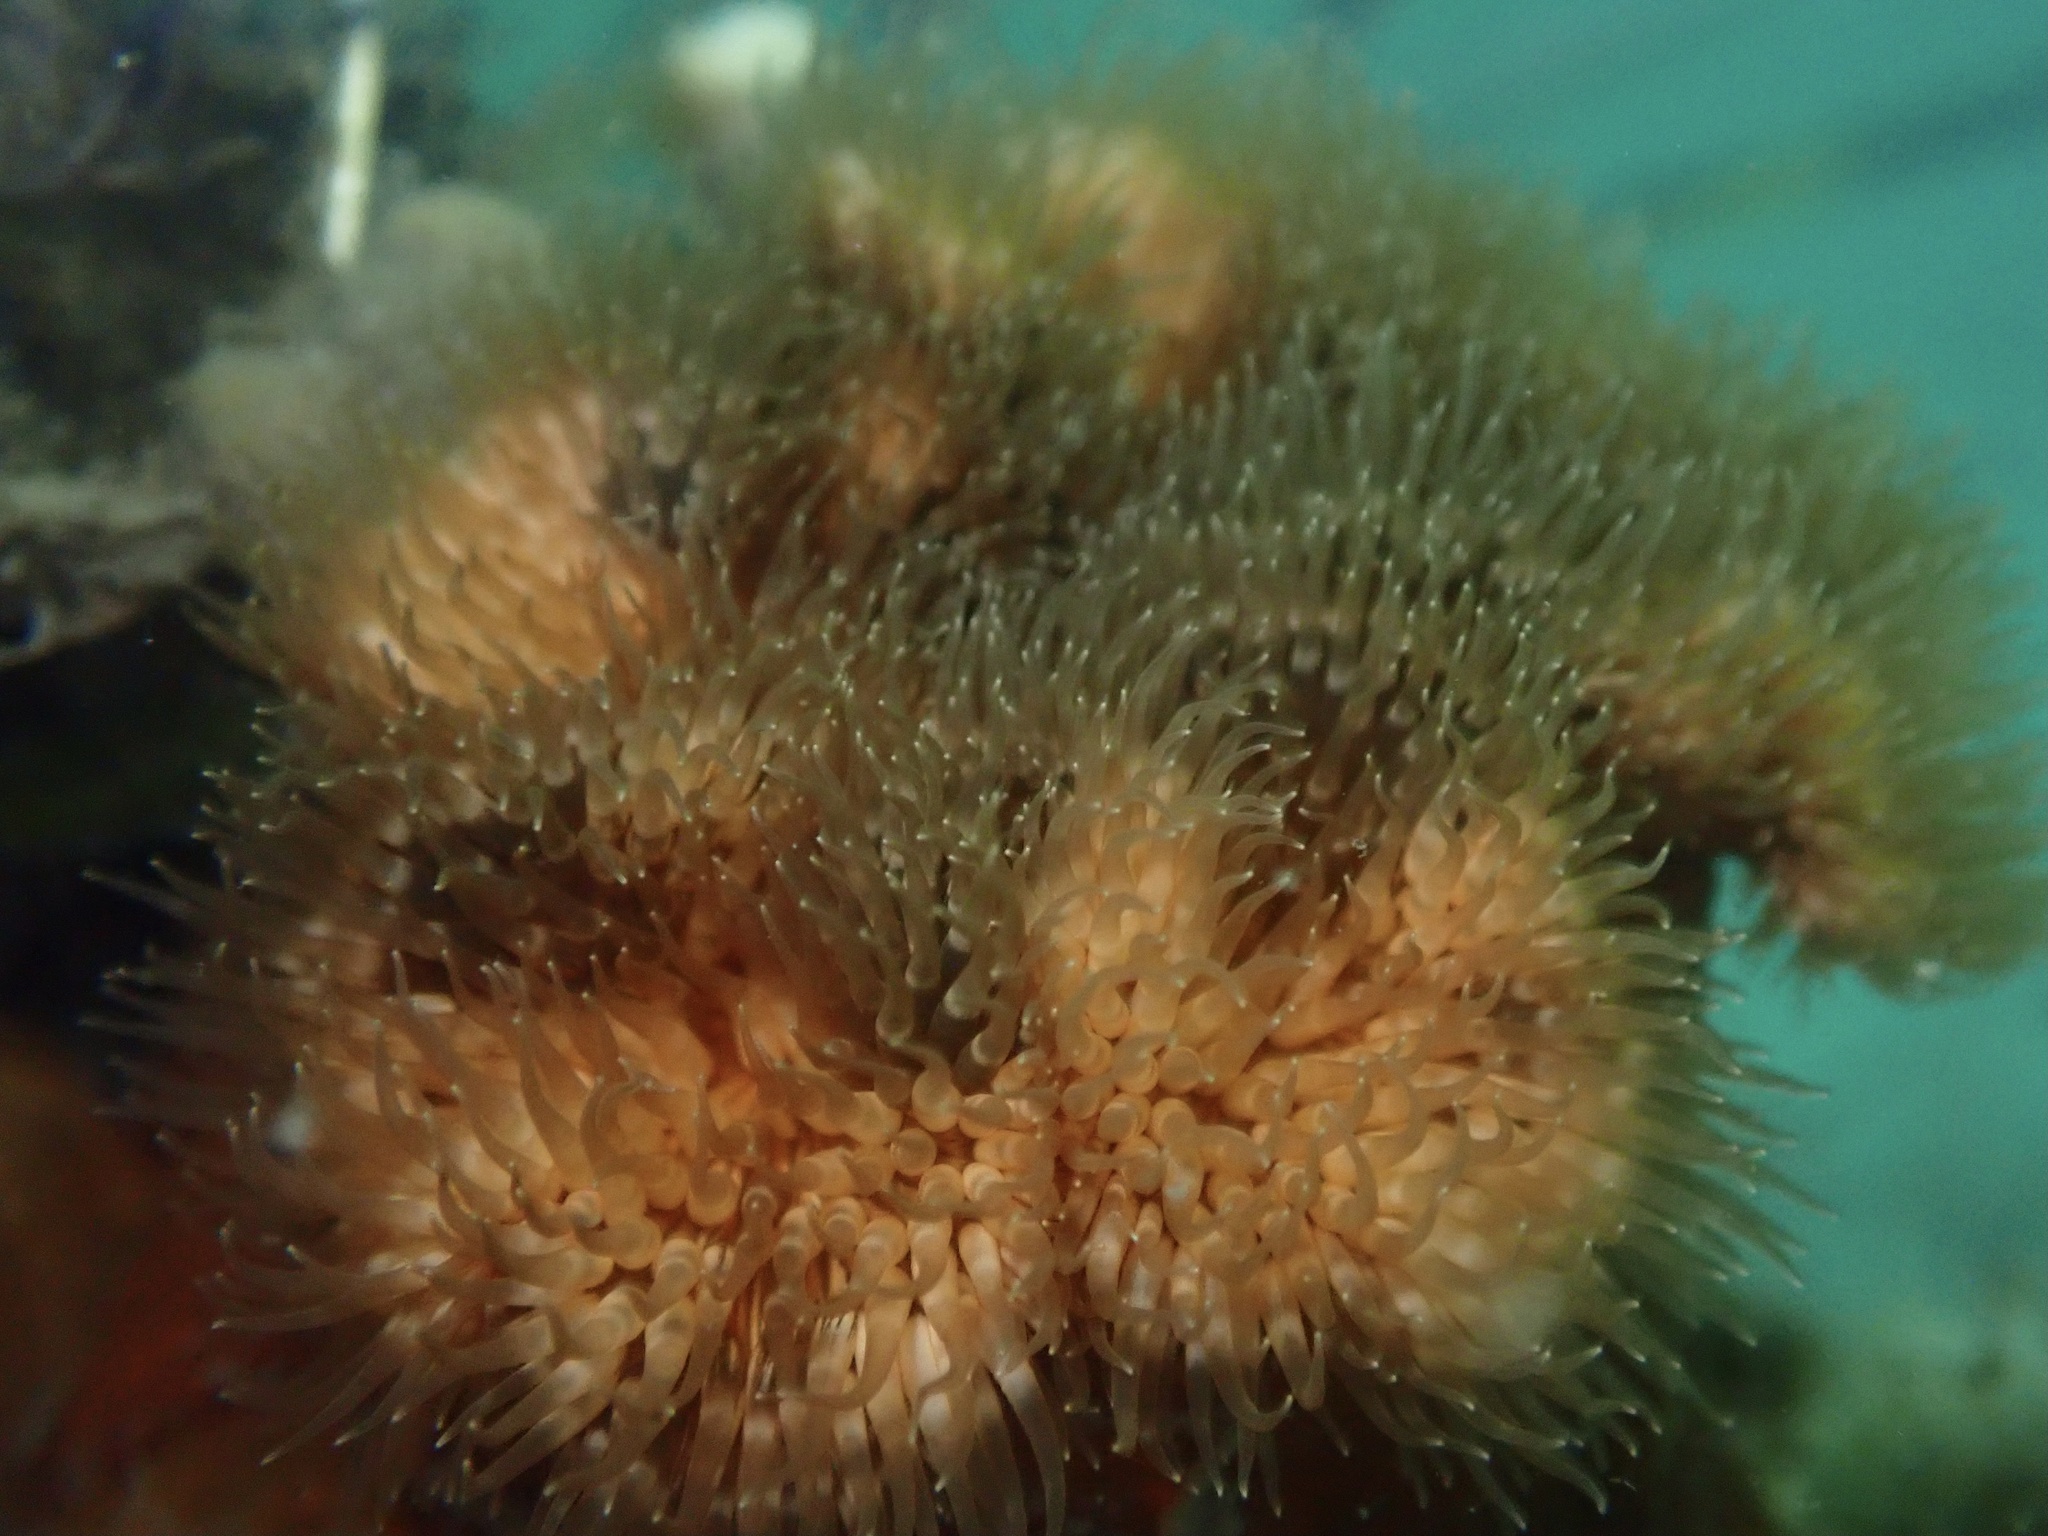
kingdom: Animalia
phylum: Cnidaria
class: Anthozoa
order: Actiniaria
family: Metridiidae
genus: Metridium
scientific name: Metridium senile
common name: Clonal plumose anemone
